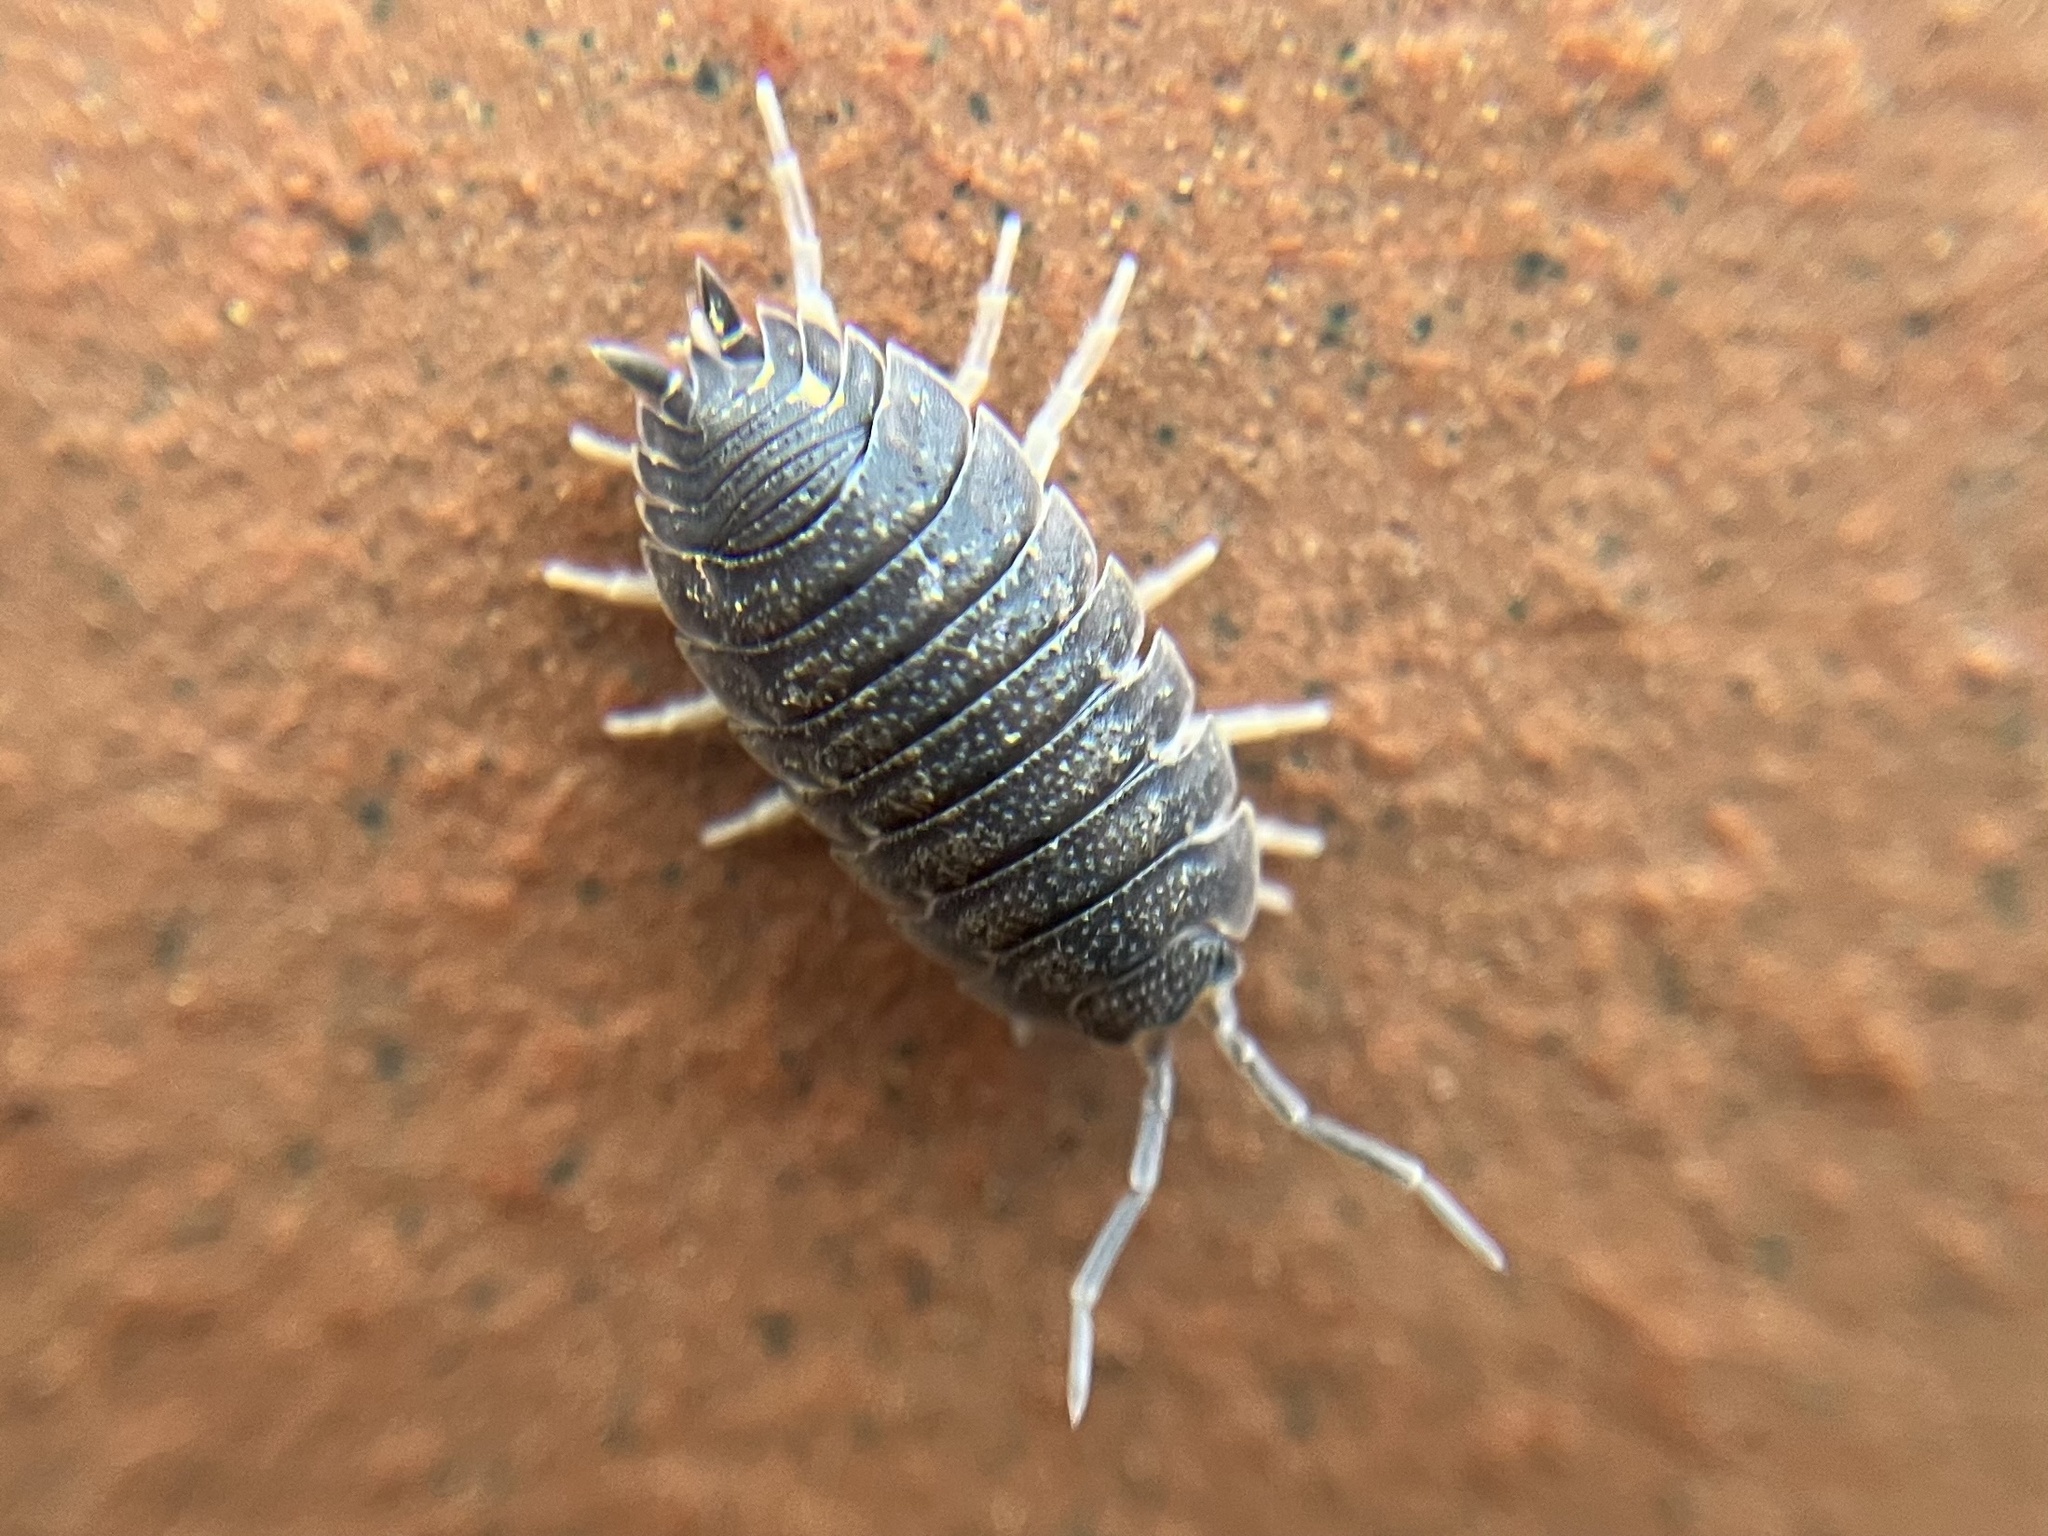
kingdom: Animalia
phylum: Arthropoda
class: Malacostraca
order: Isopoda
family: Porcellionidae
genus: Porcellio
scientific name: Porcellio scaber
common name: Common rough woodlouse
